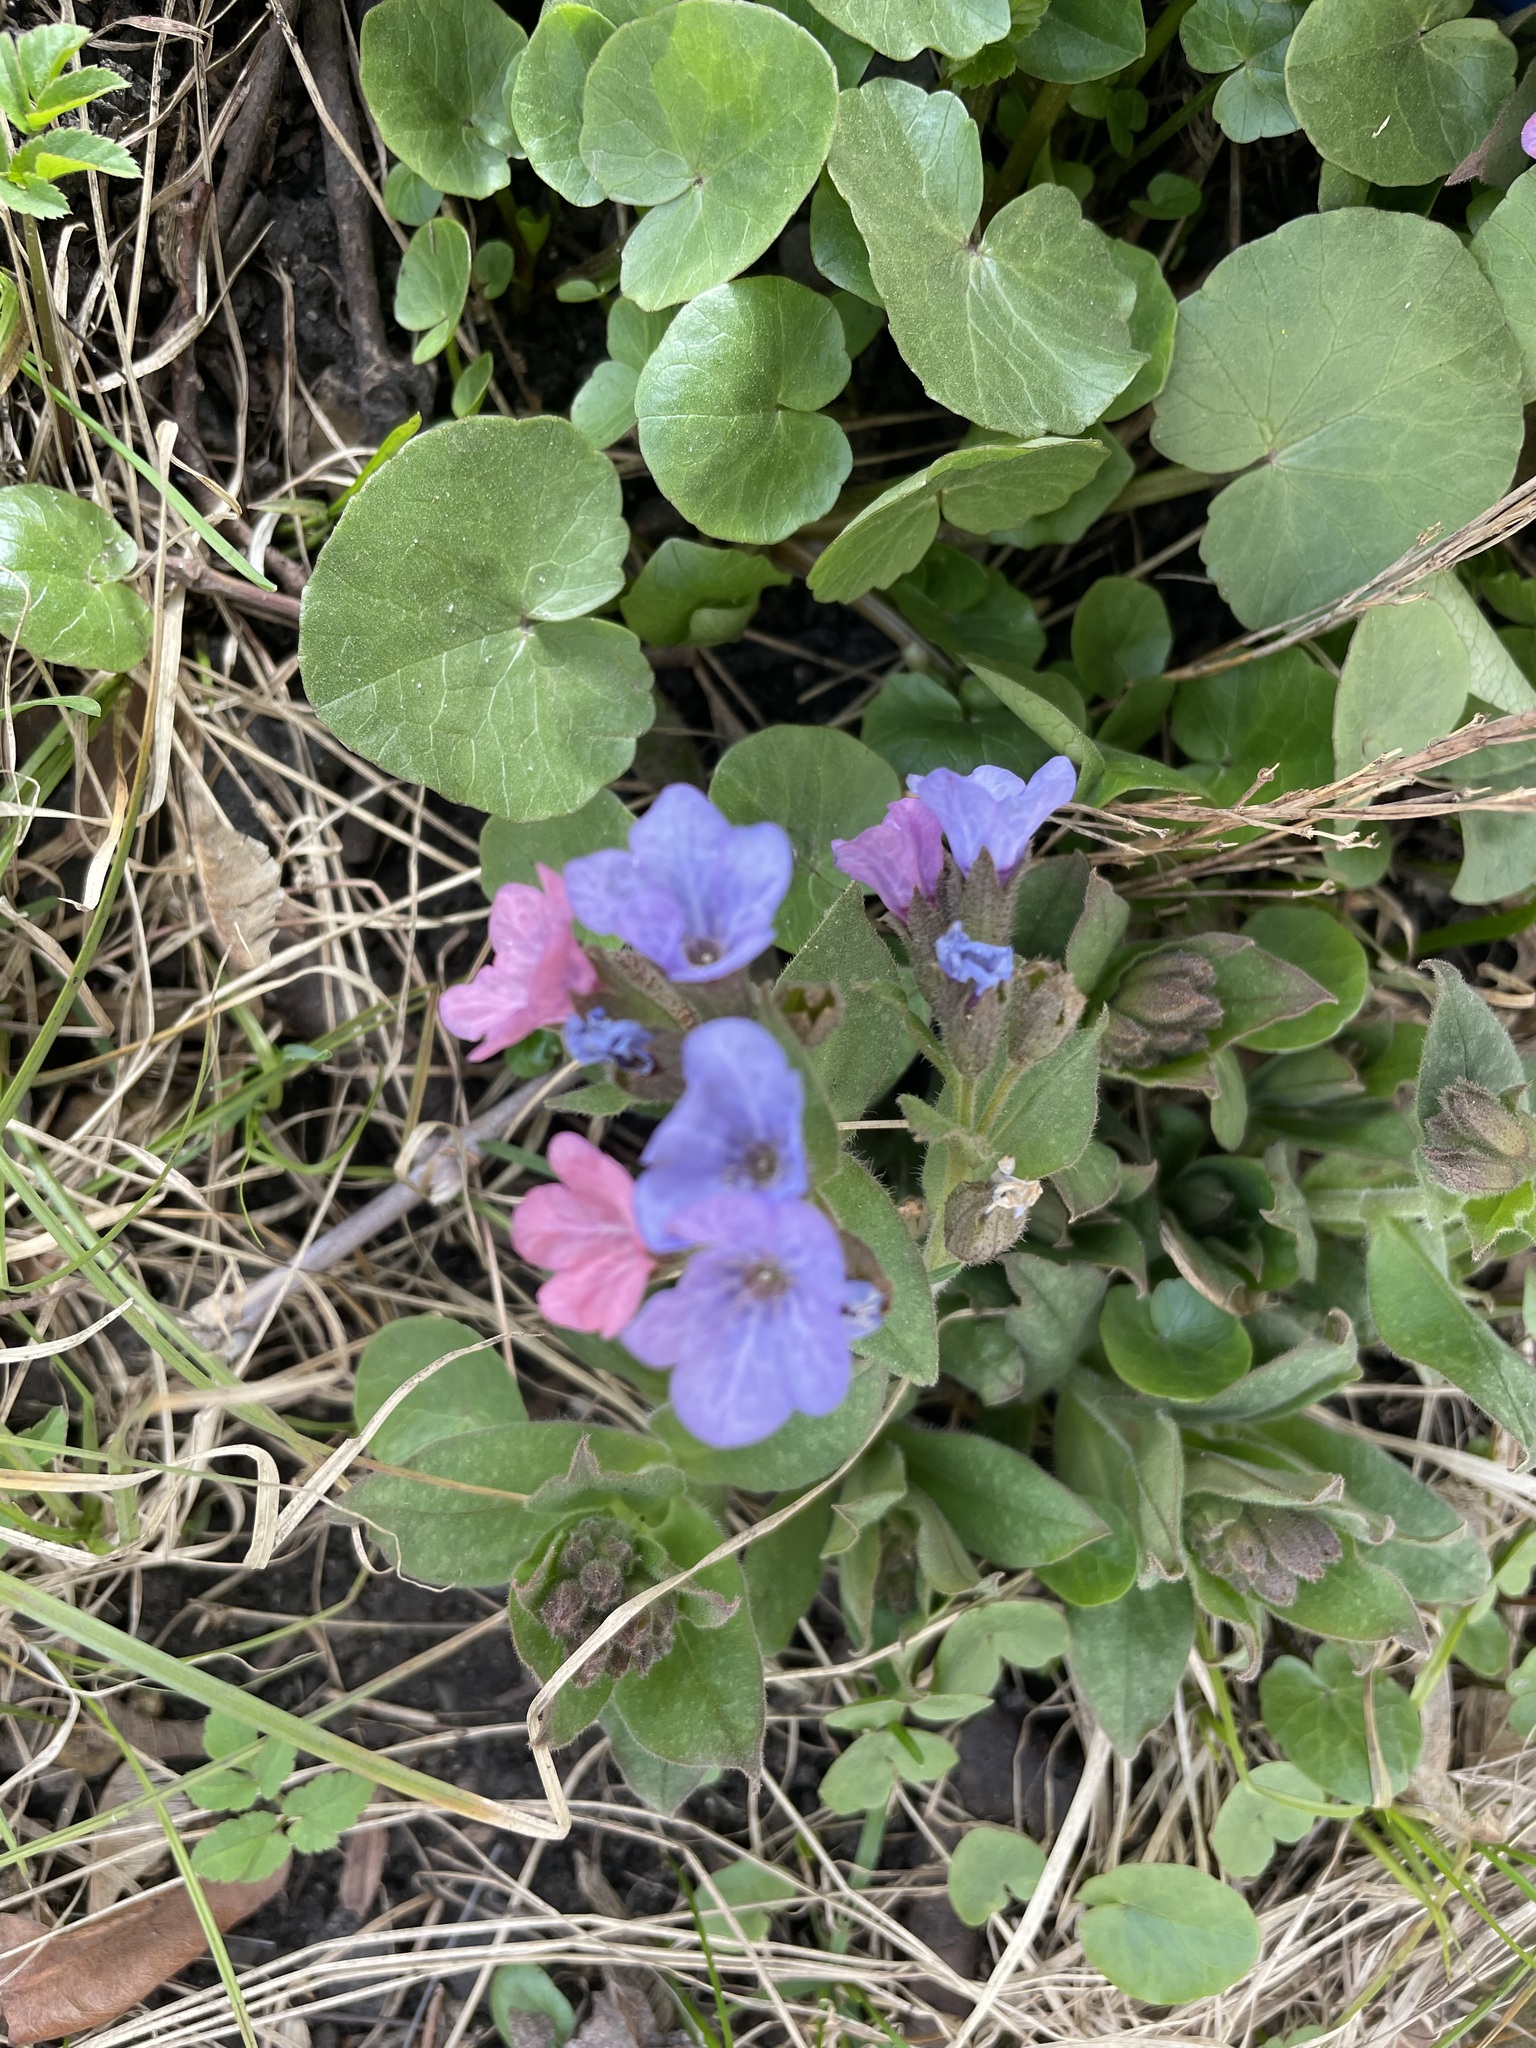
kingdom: Plantae
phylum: Tracheophyta
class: Magnoliopsida
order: Boraginales
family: Boraginaceae
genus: Pulmonaria
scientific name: Pulmonaria obscura
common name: Suffolk lungwort
